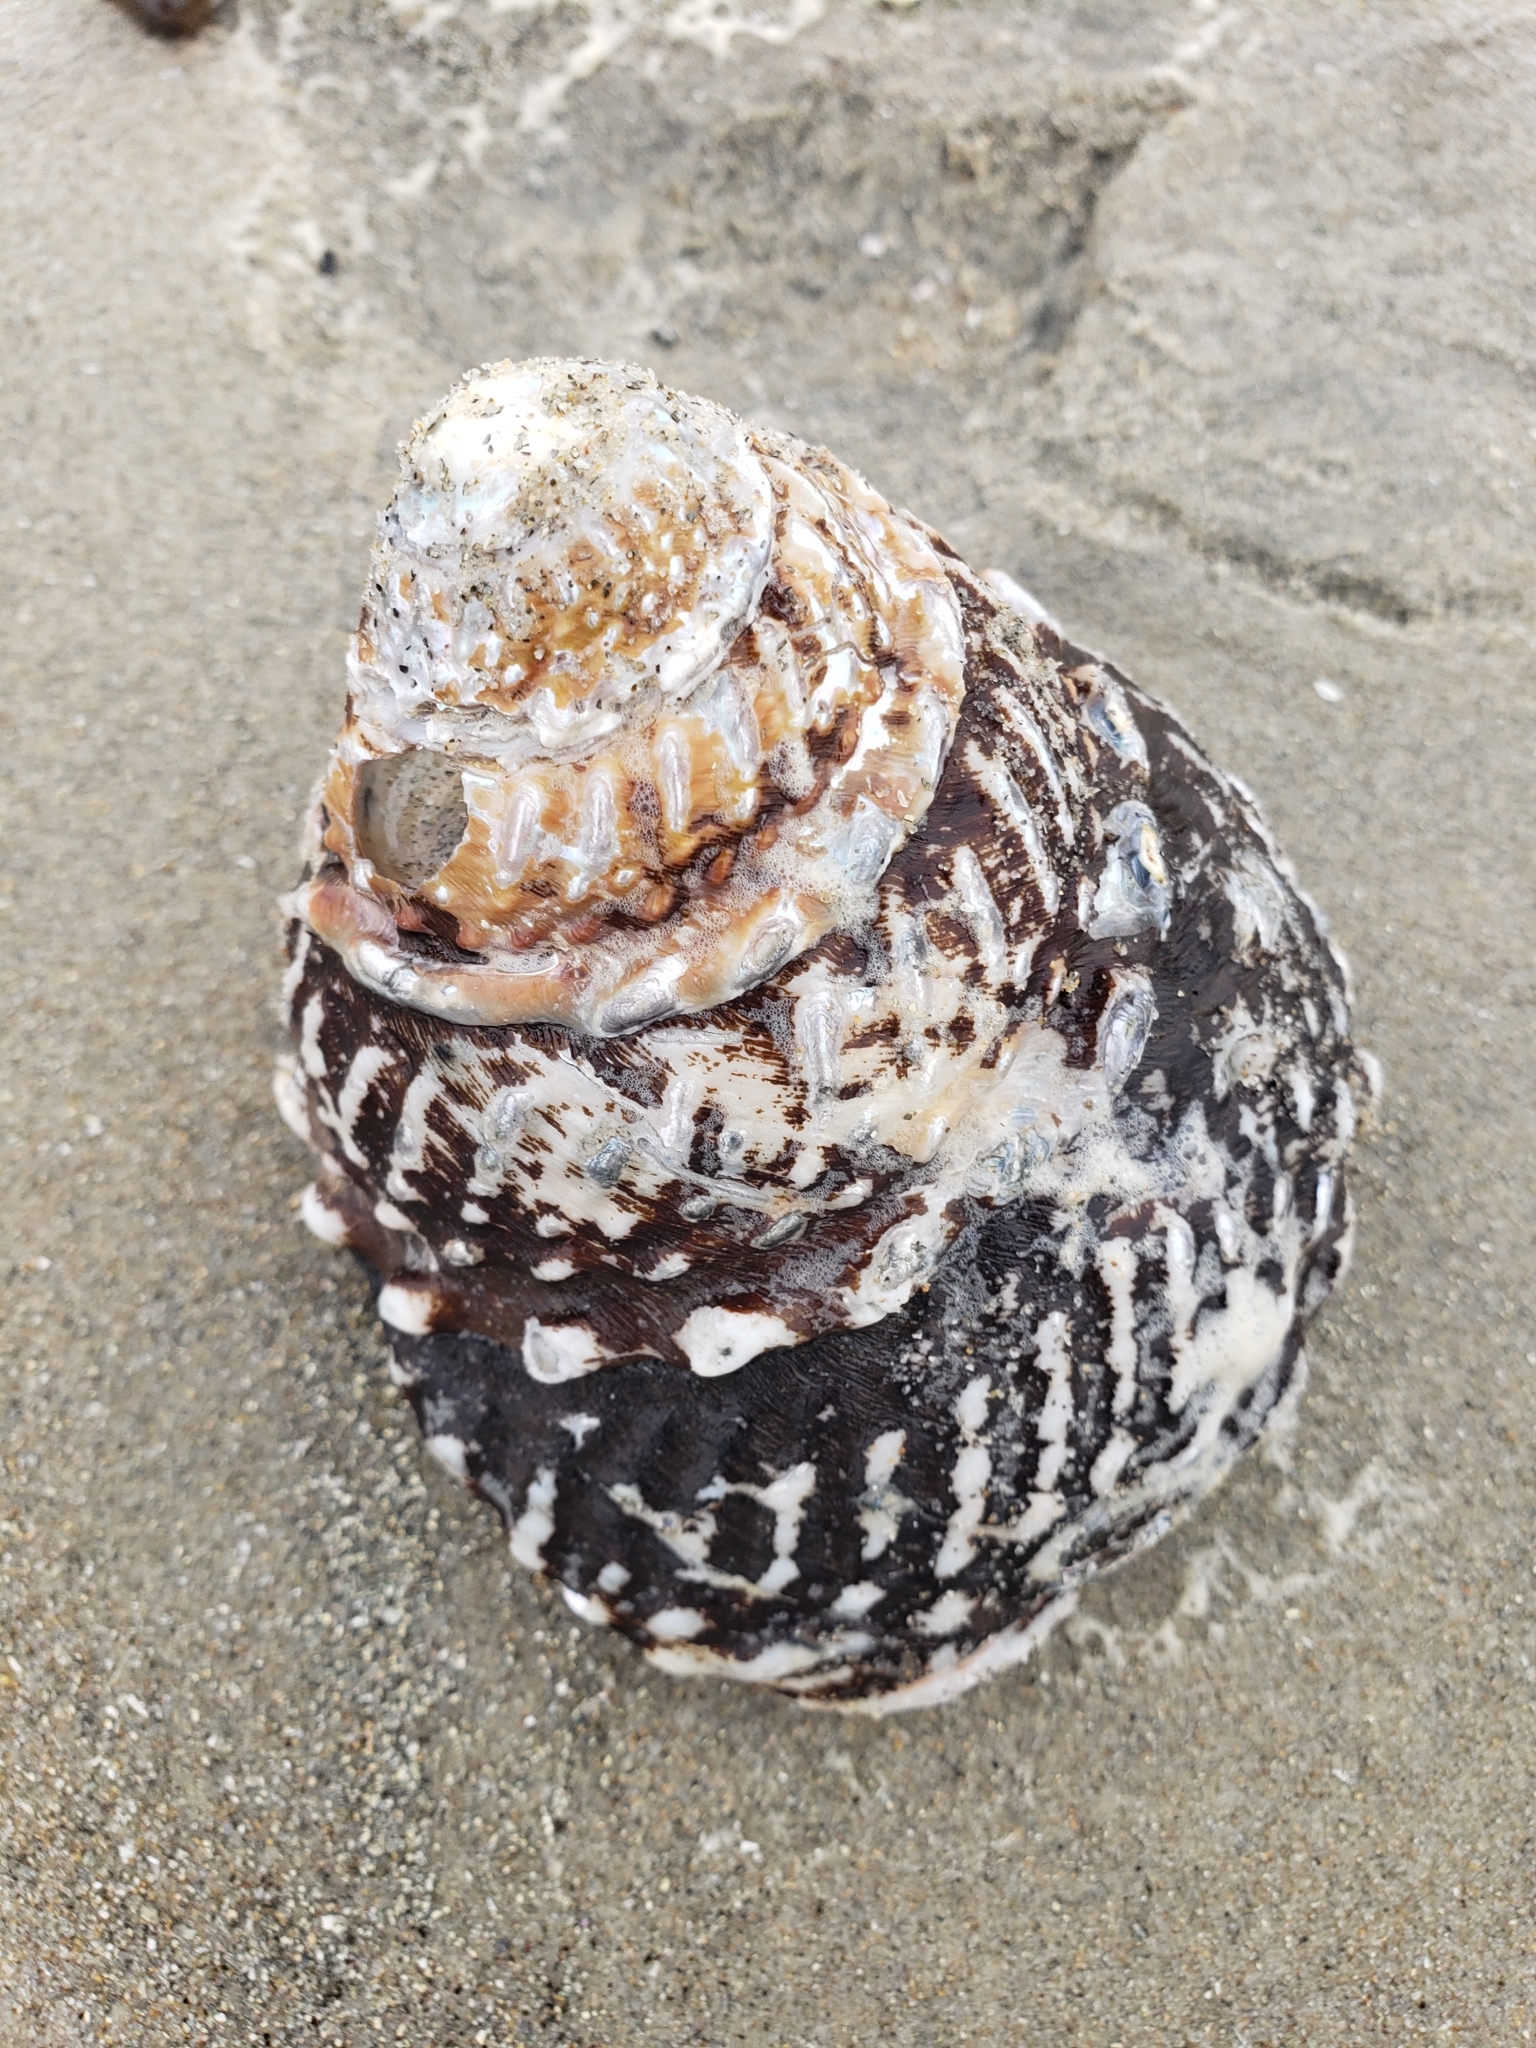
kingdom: Animalia
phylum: Mollusca
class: Gastropoda
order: Trochida
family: Turbinidae
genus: Megastraea
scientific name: Megastraea undosa
